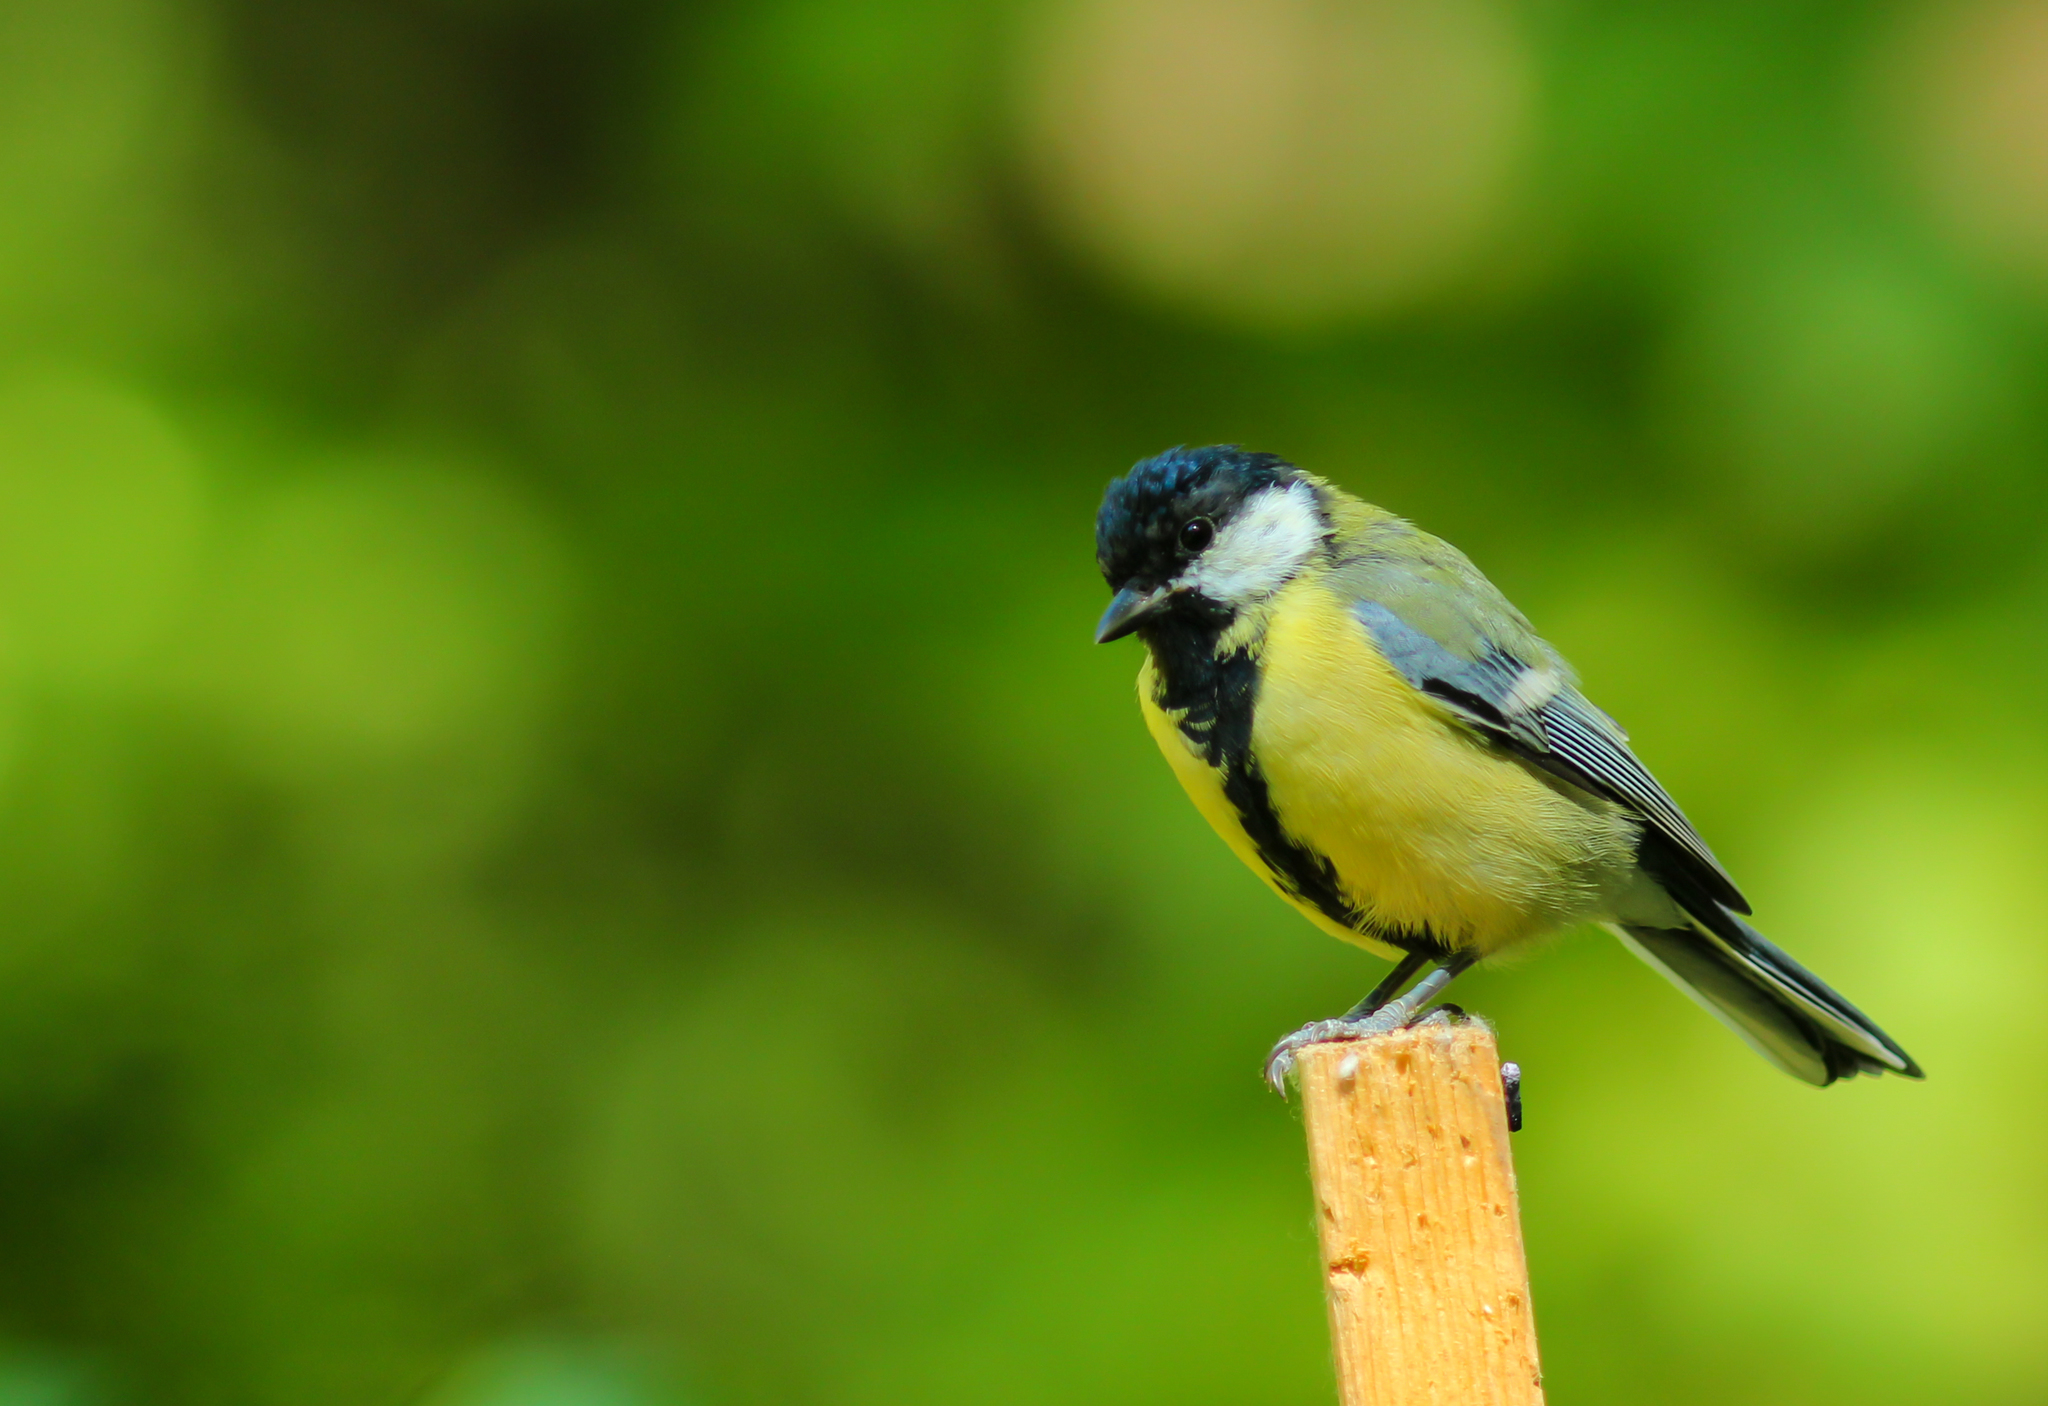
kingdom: Animalia
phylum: Chordata
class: Aves
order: Passeriformes
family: Paridae
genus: Parus
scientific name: Parus major
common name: Great tit
